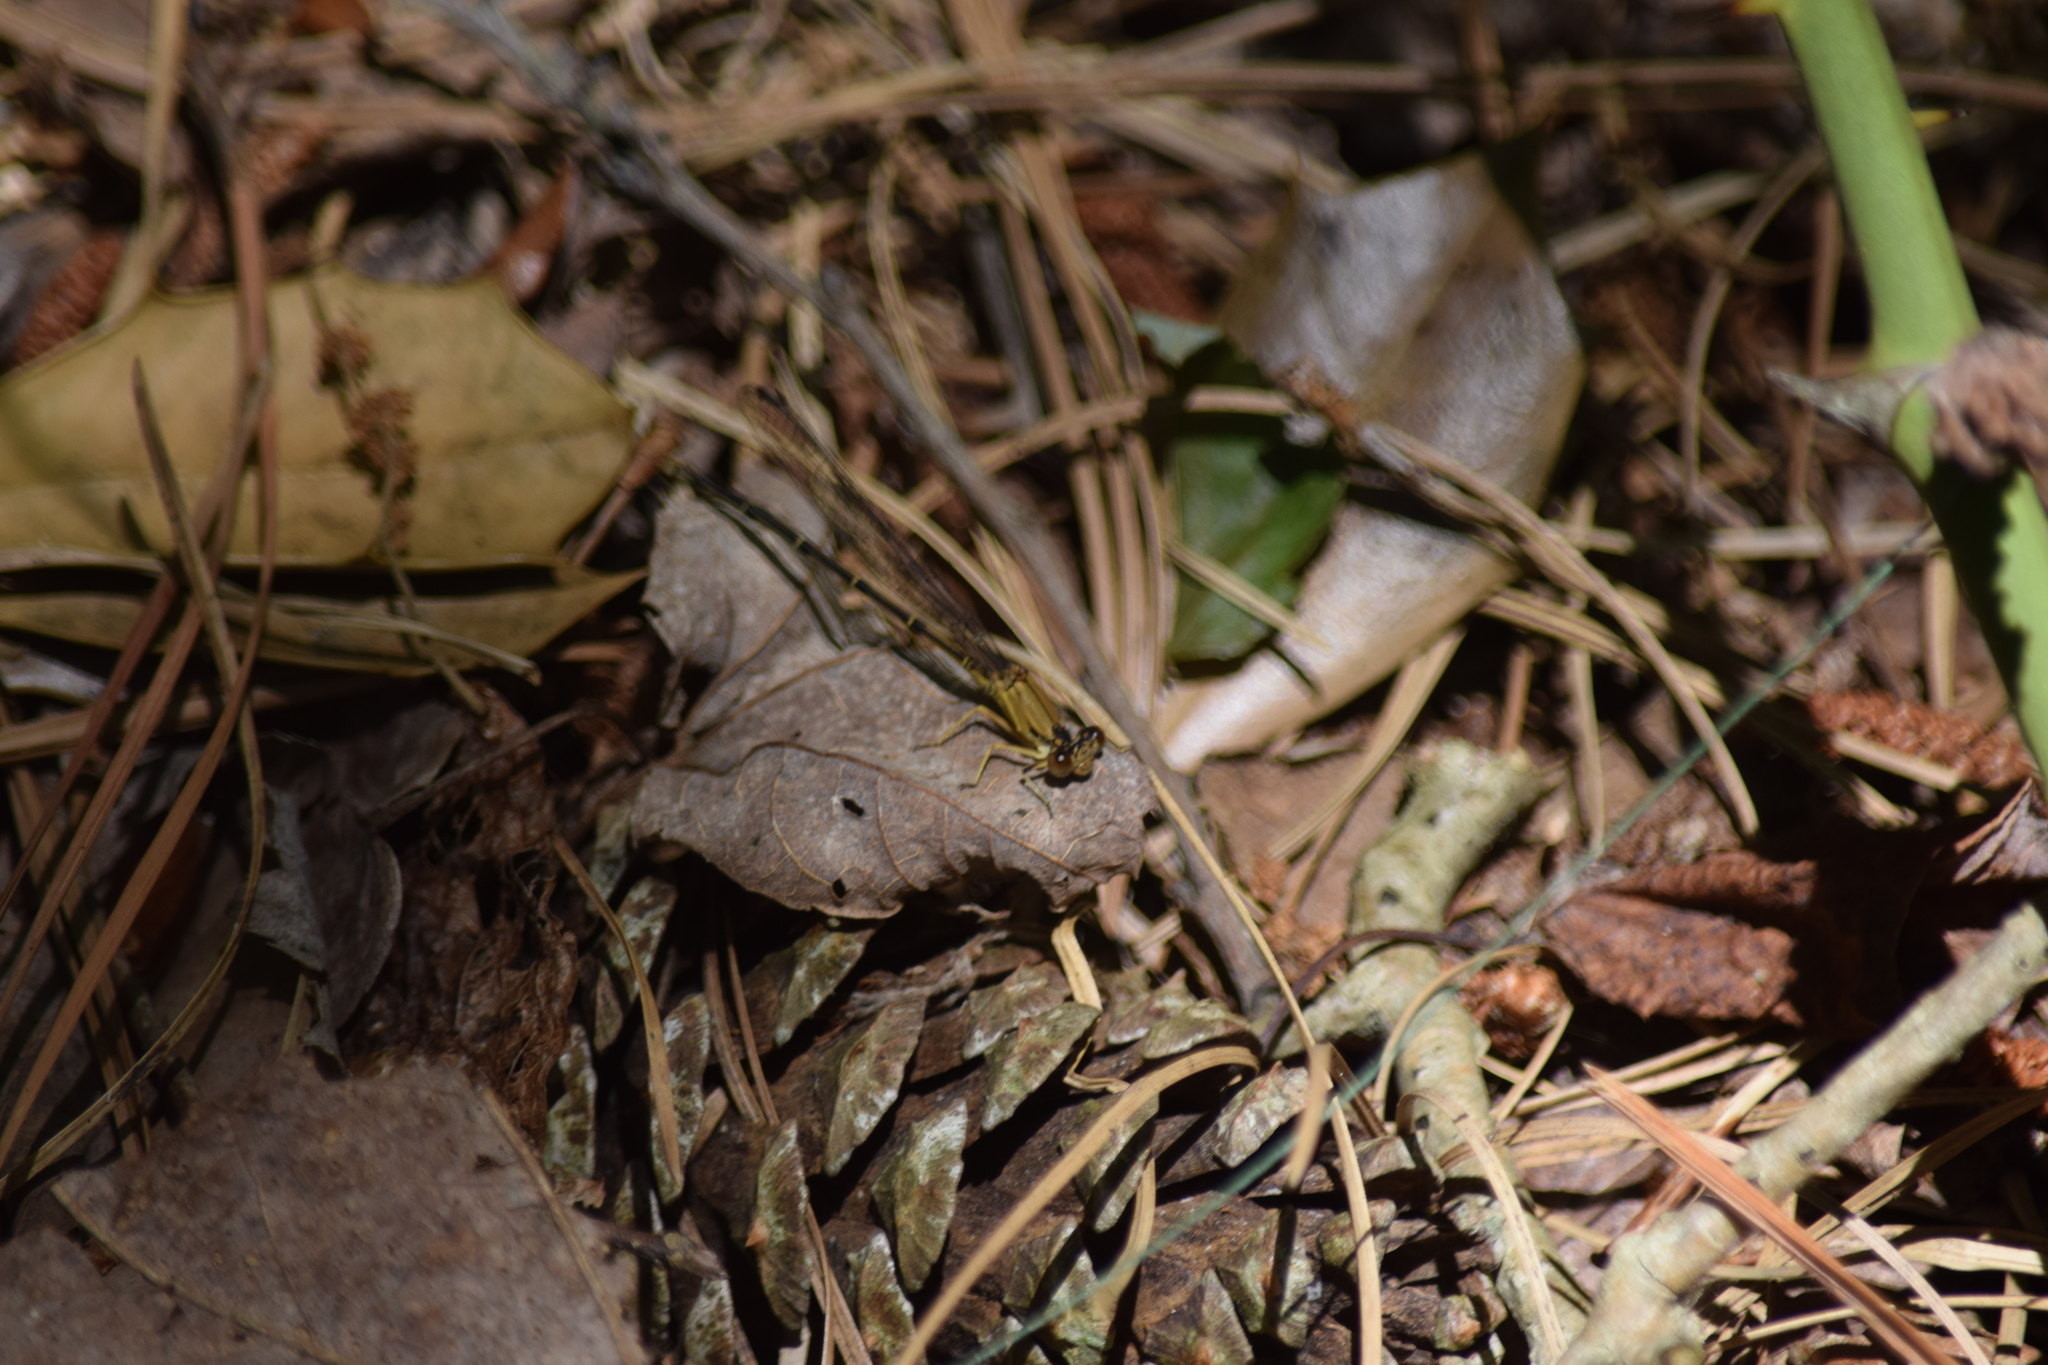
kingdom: Animalia
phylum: Arthropoda
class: Insecta
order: Odonata
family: Coenagrionidae
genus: Argia
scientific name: Argia apicalis
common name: Blue-fronted dancer
